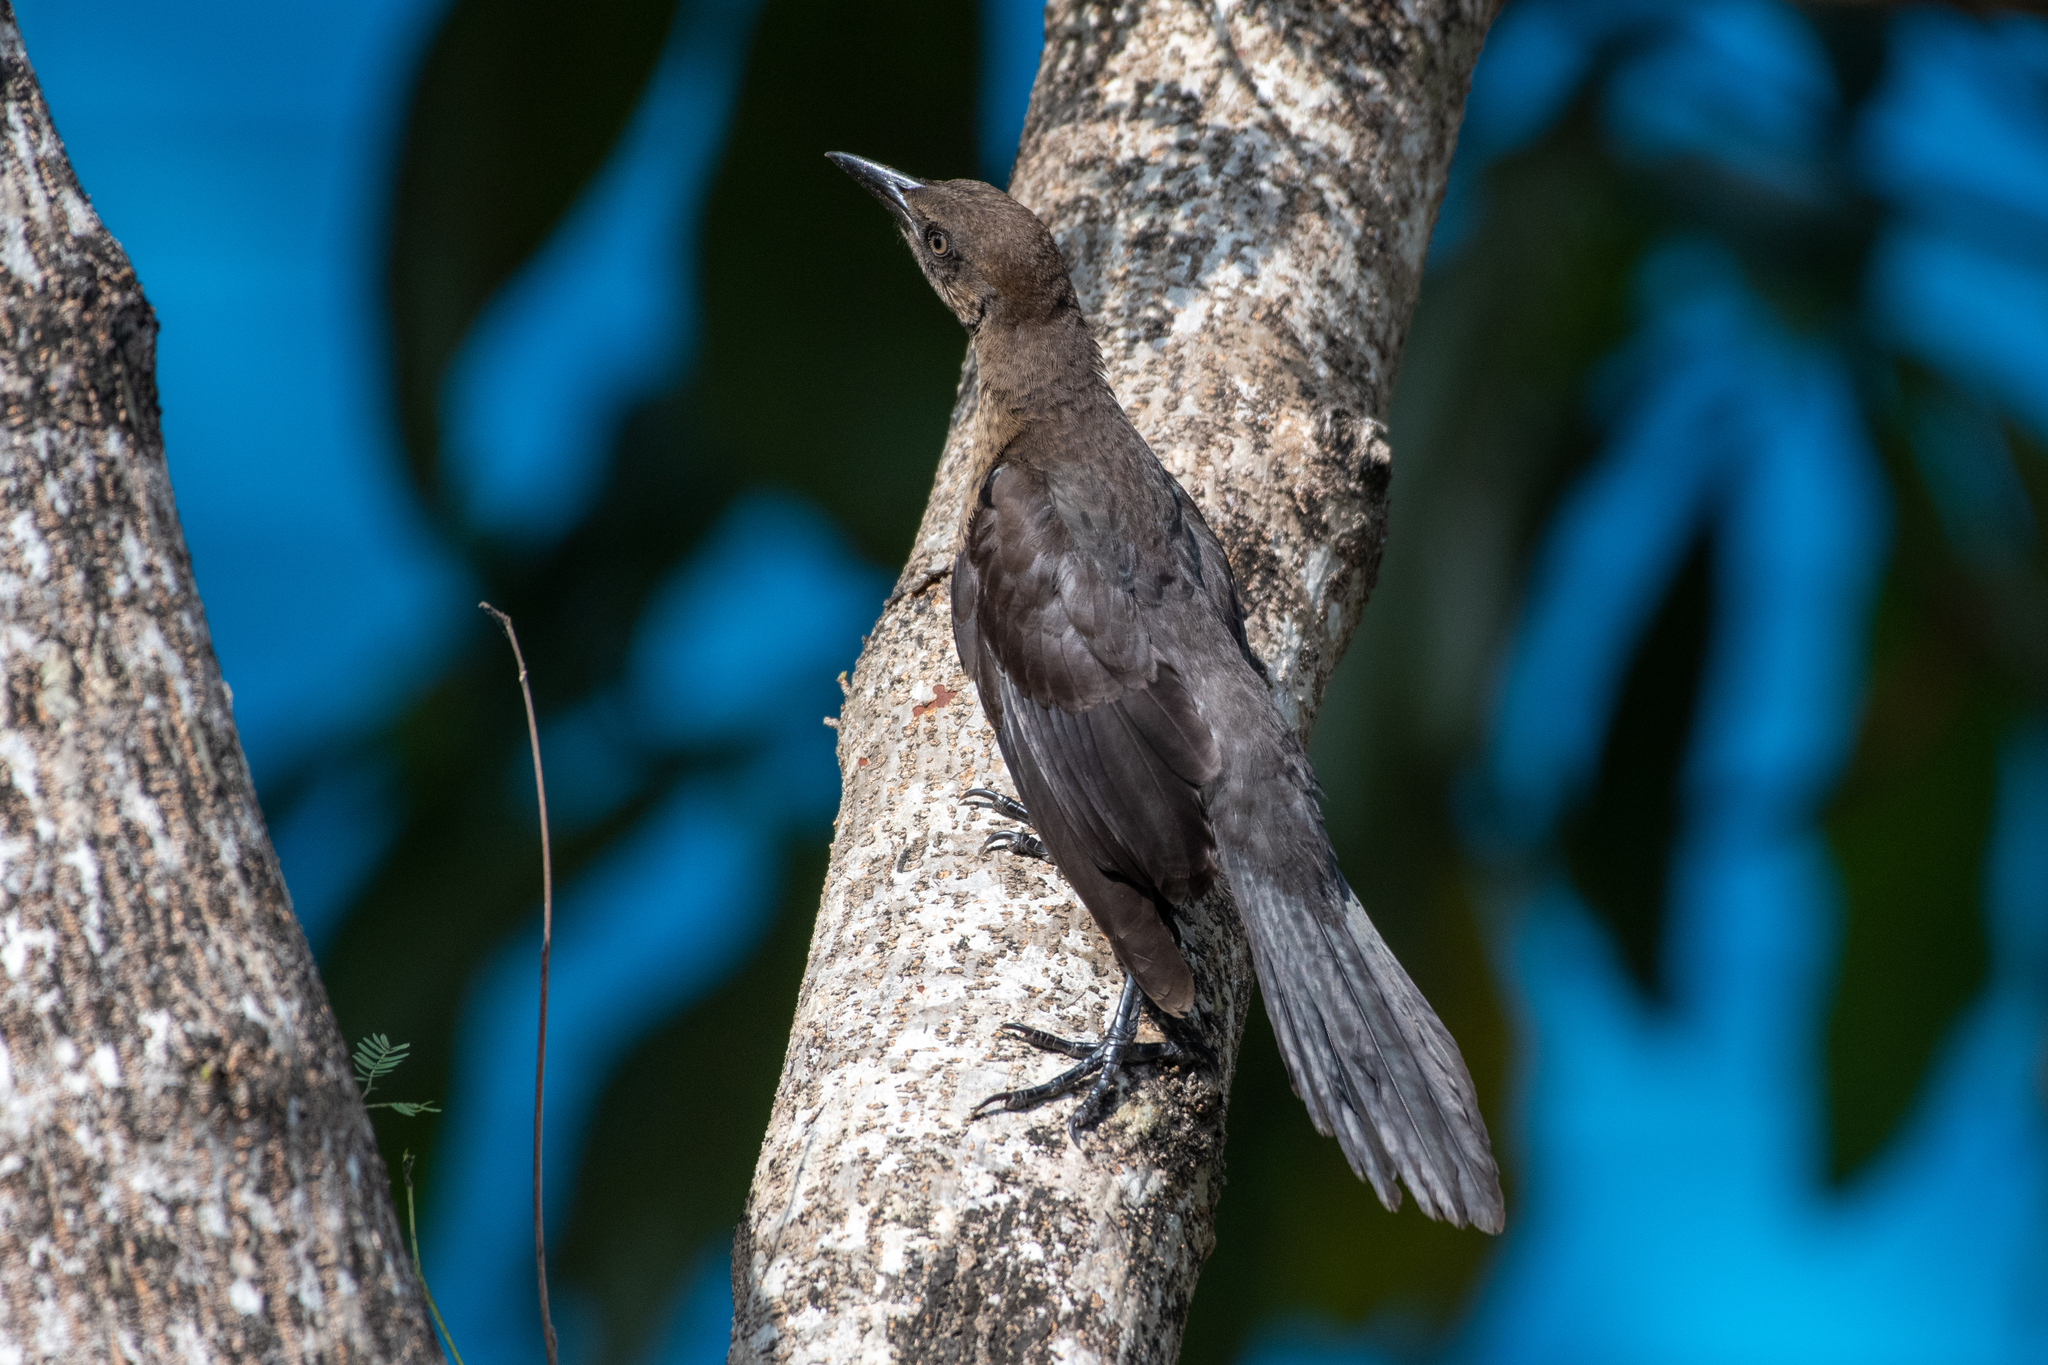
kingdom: Animalia
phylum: Chordata
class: Aves
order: Passeriformes
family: Icteridae
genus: Quiscalus
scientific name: Quiscalus mexicanus
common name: Great-tailed grackle
